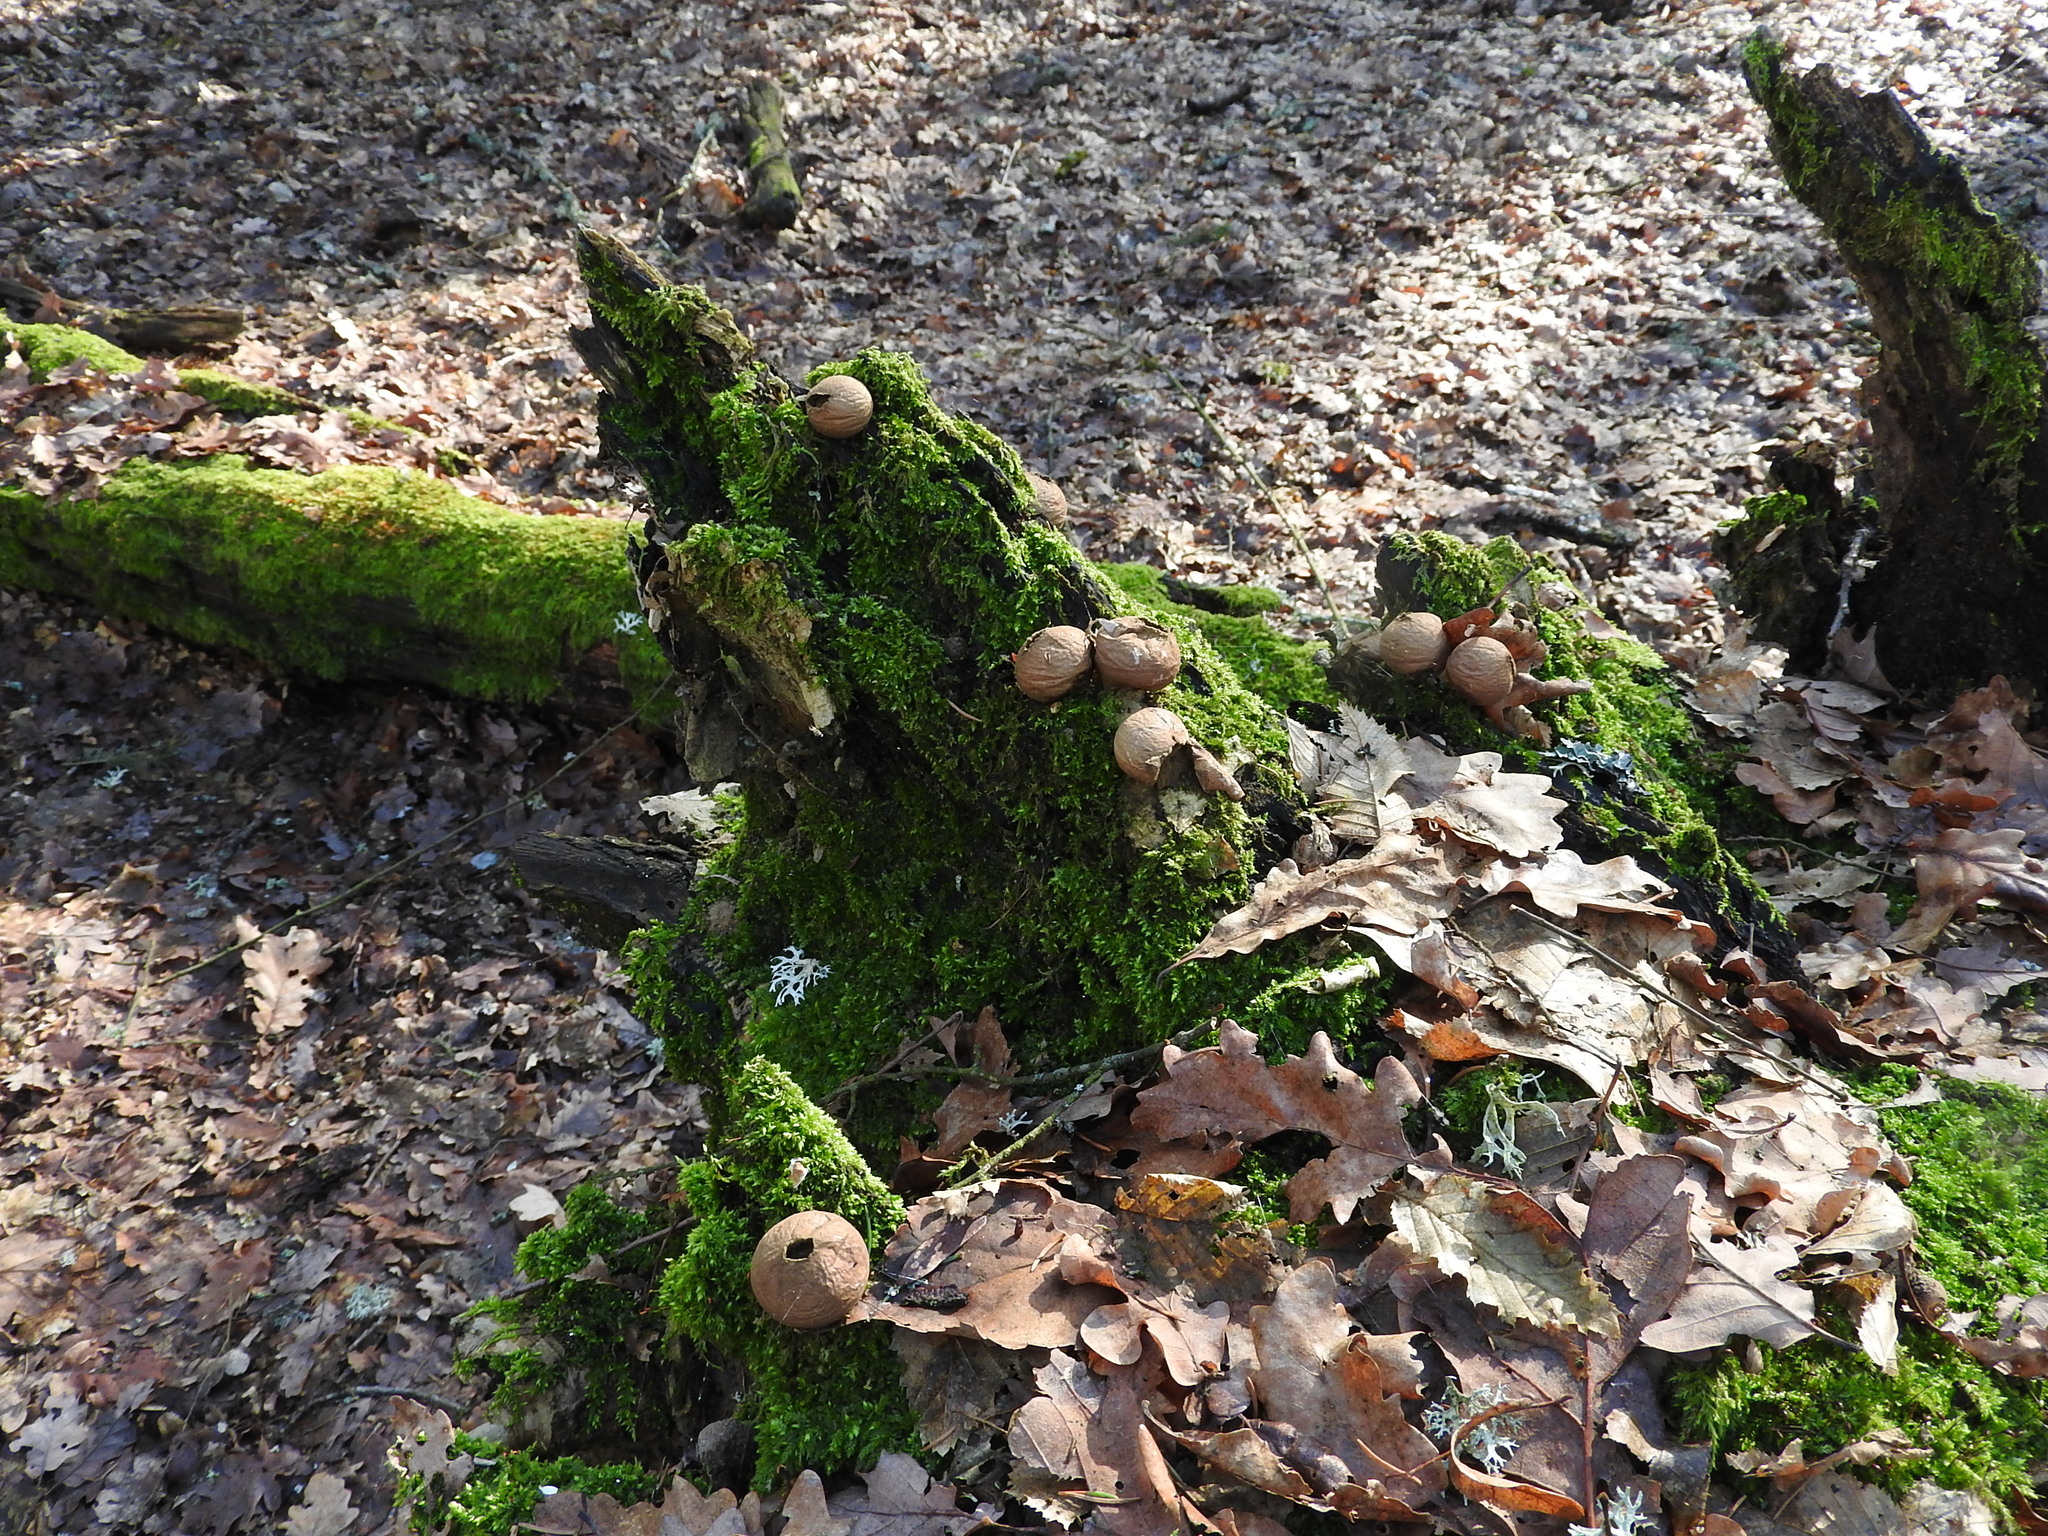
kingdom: Fungi
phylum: Basidiomycota
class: Agaricomycetes
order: Agaricales
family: Lycoperdaceae
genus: Apioperdon
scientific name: Apioperdon pyriforme
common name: Pear-shaped puffball
